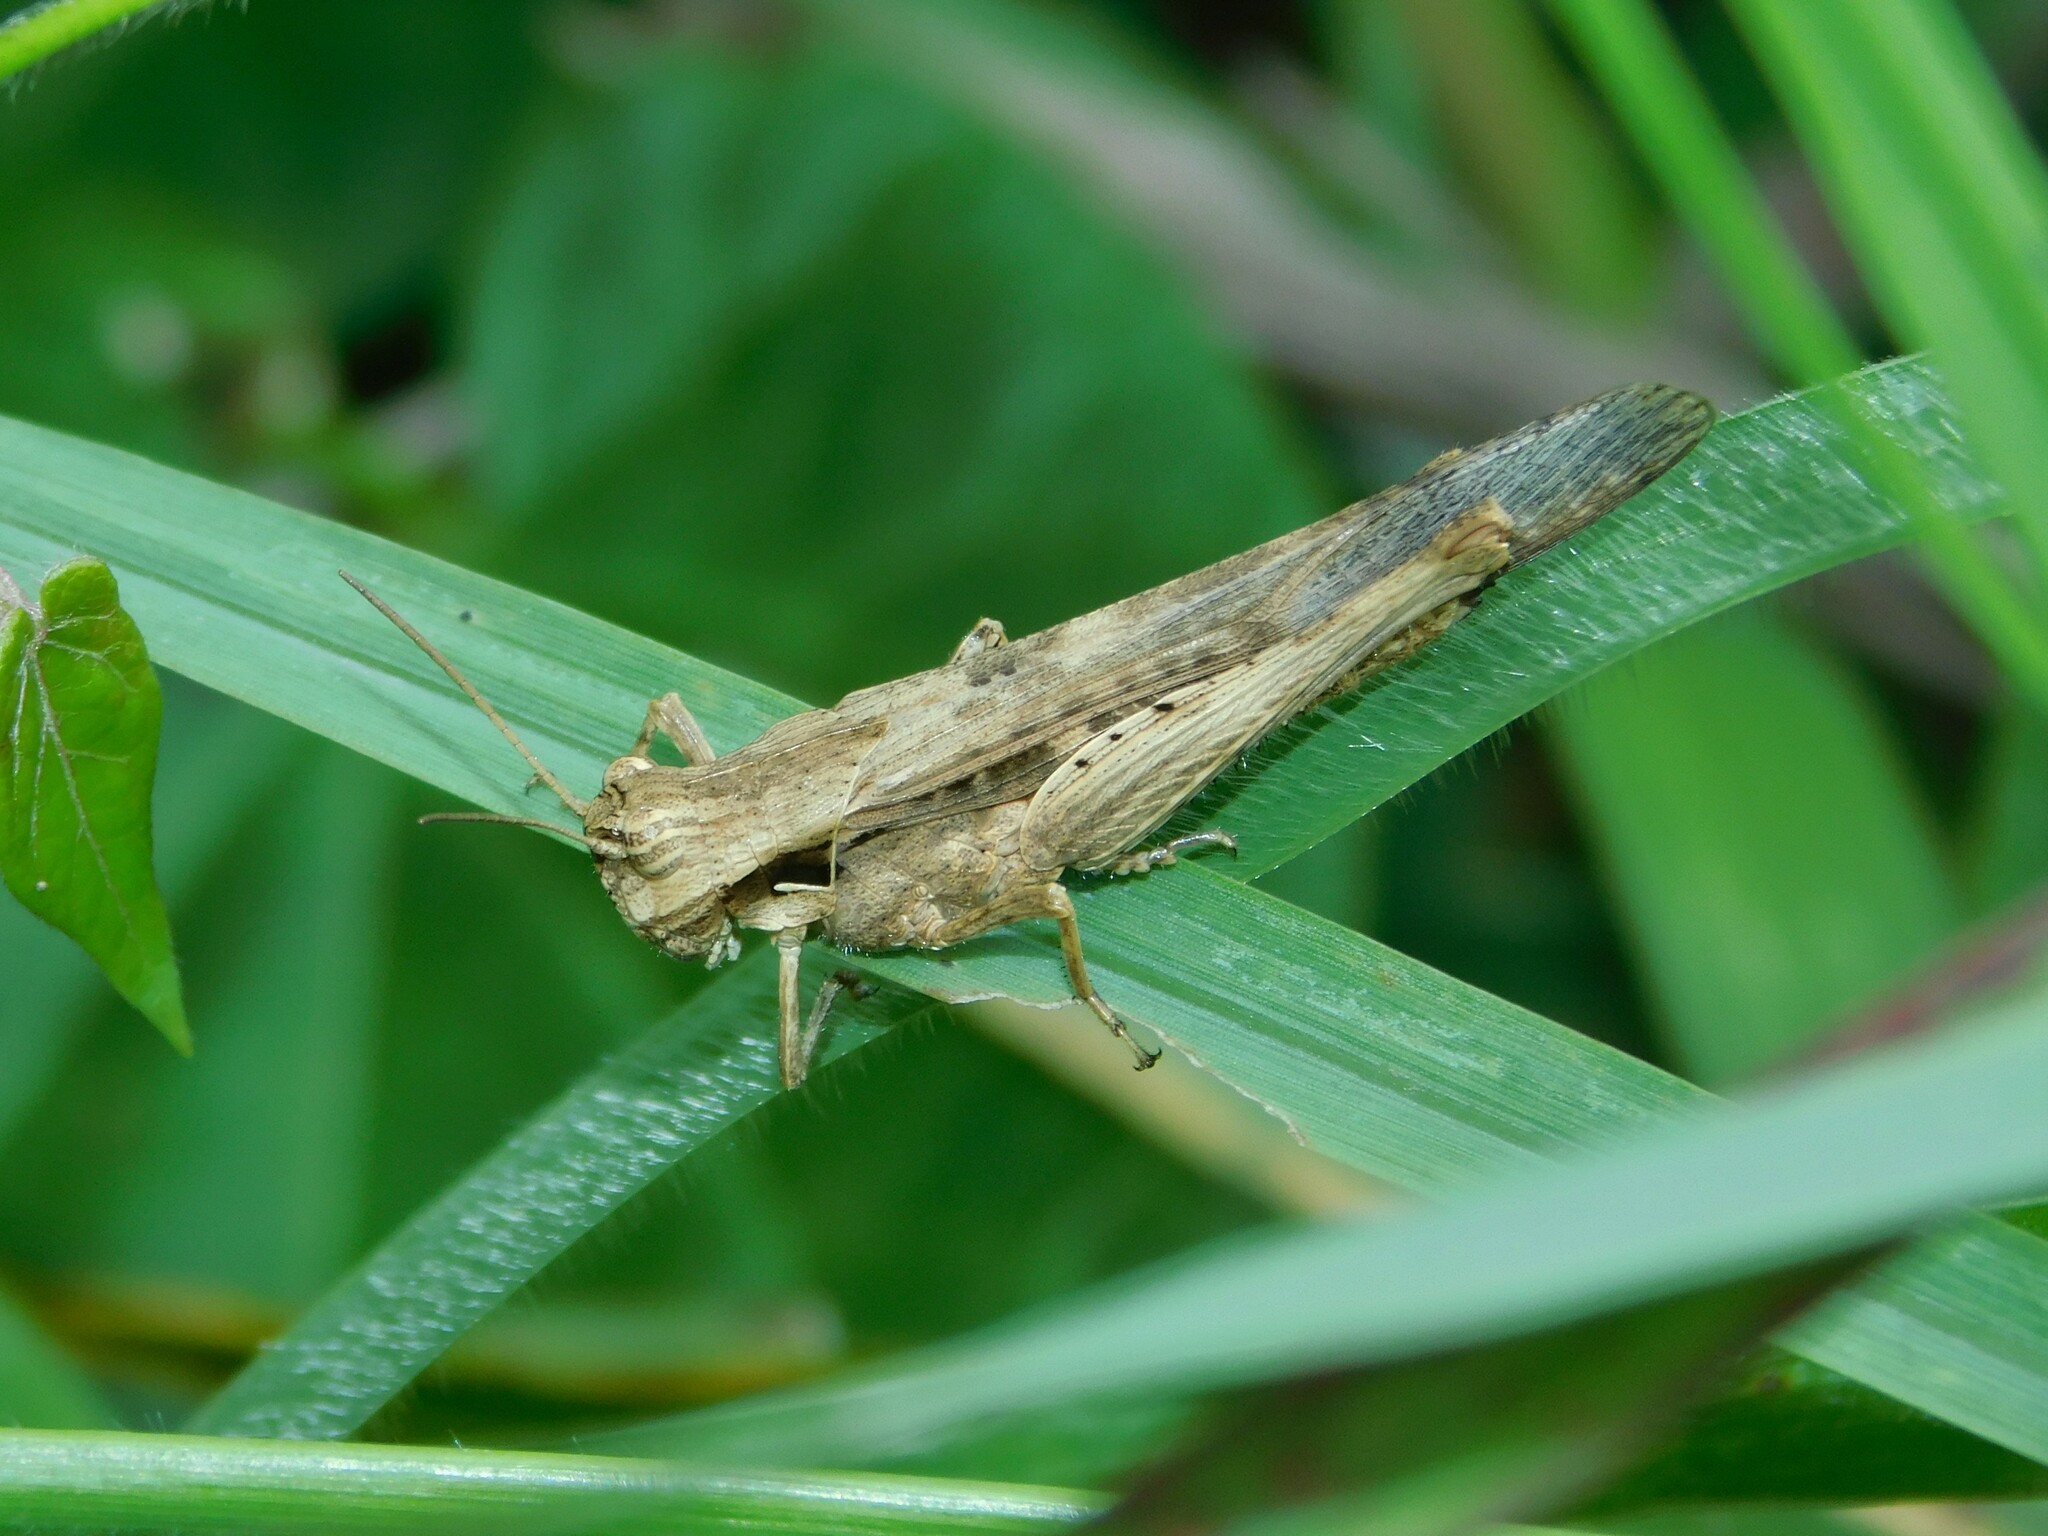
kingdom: Animalia
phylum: Arthropoda
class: Insecta
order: Orthoptera
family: Acrididae
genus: Morphacris
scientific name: Morphacris fasciata
